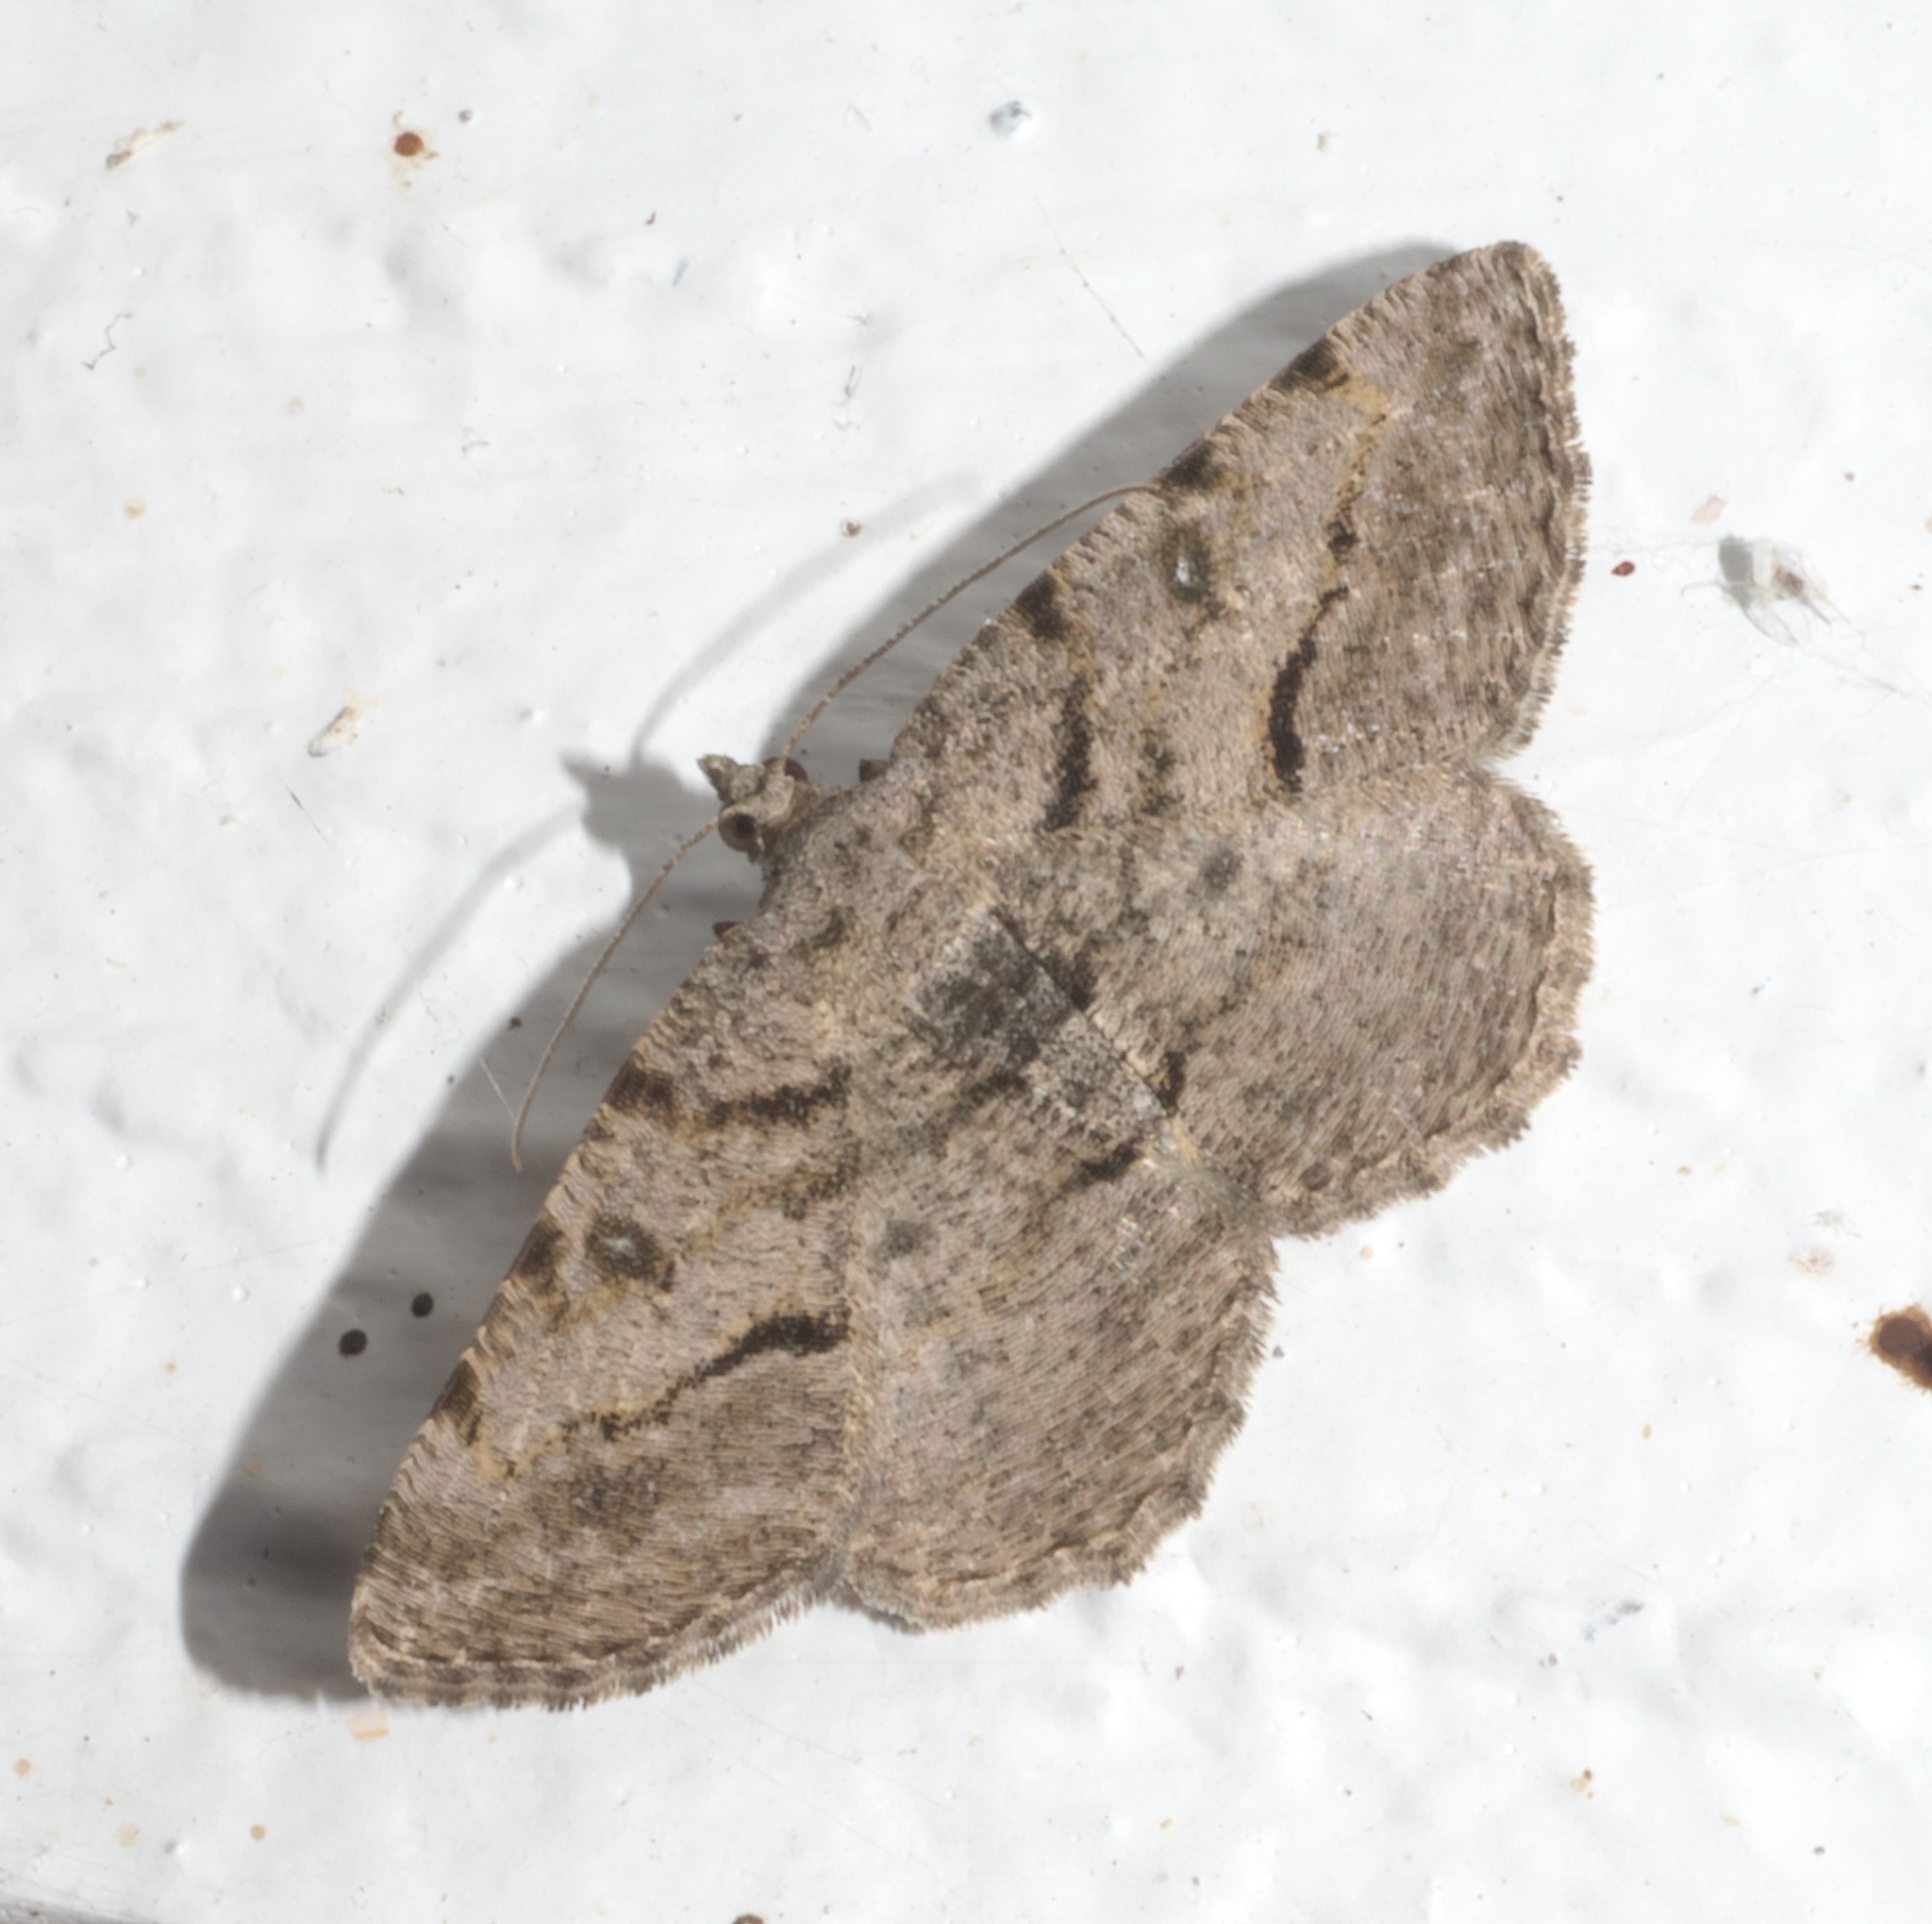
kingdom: Animalia
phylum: Arthropoda
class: Insecta
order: Lepidoptera
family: Geometridae
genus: Digrammia
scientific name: Digrammia gnophosaria
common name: Hollow-spotted angle
